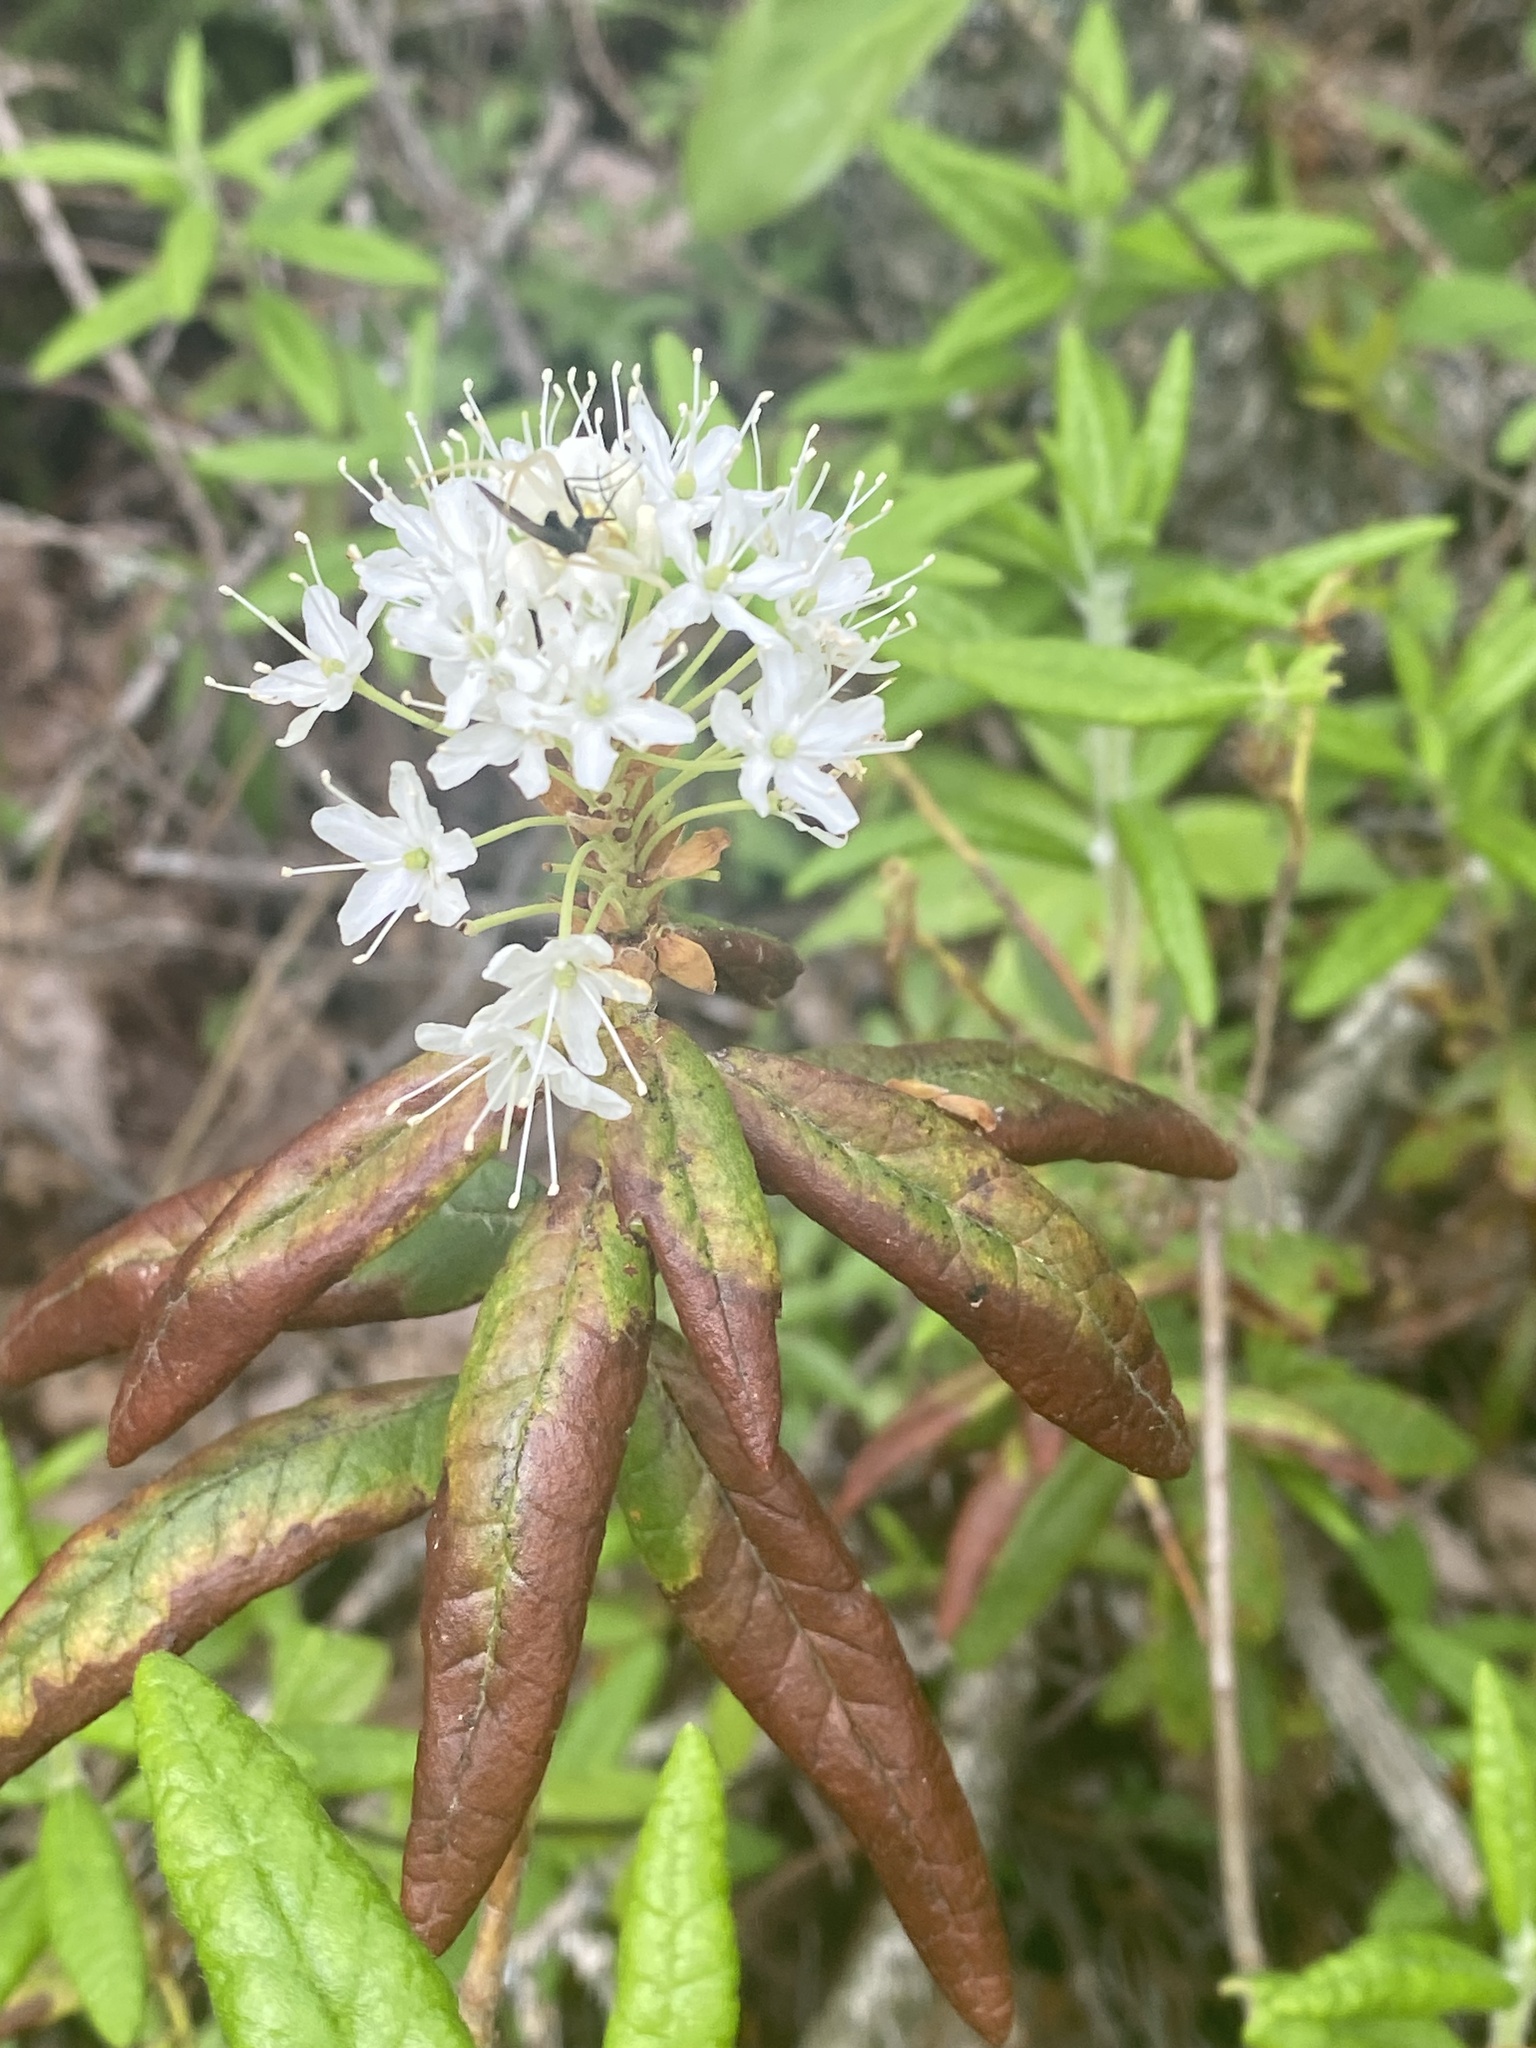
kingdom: Plantae
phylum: Tracheophyta
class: Magnoliopsida
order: Ericales
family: Ericaceae
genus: Rhododendron
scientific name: Rhododendron groenlandicum
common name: Bog labrador tea
